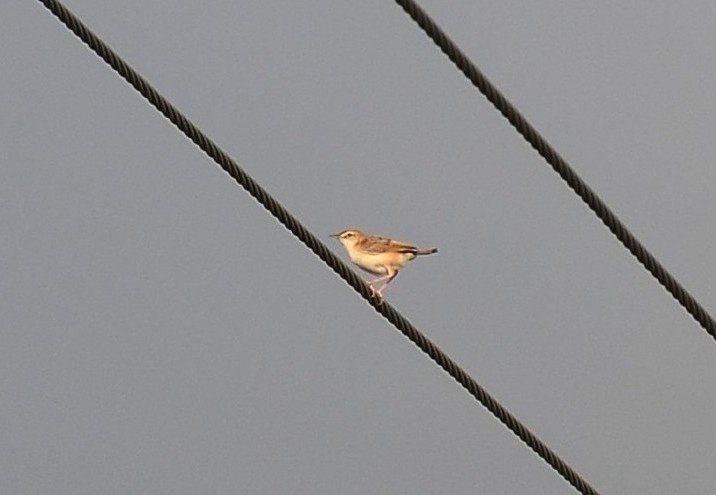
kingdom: Animalia
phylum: Chordata
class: Aves
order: Passeriformes
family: Cisticolidae
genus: Cisticola
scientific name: Cisticola juncidis
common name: Zitting cisticola
